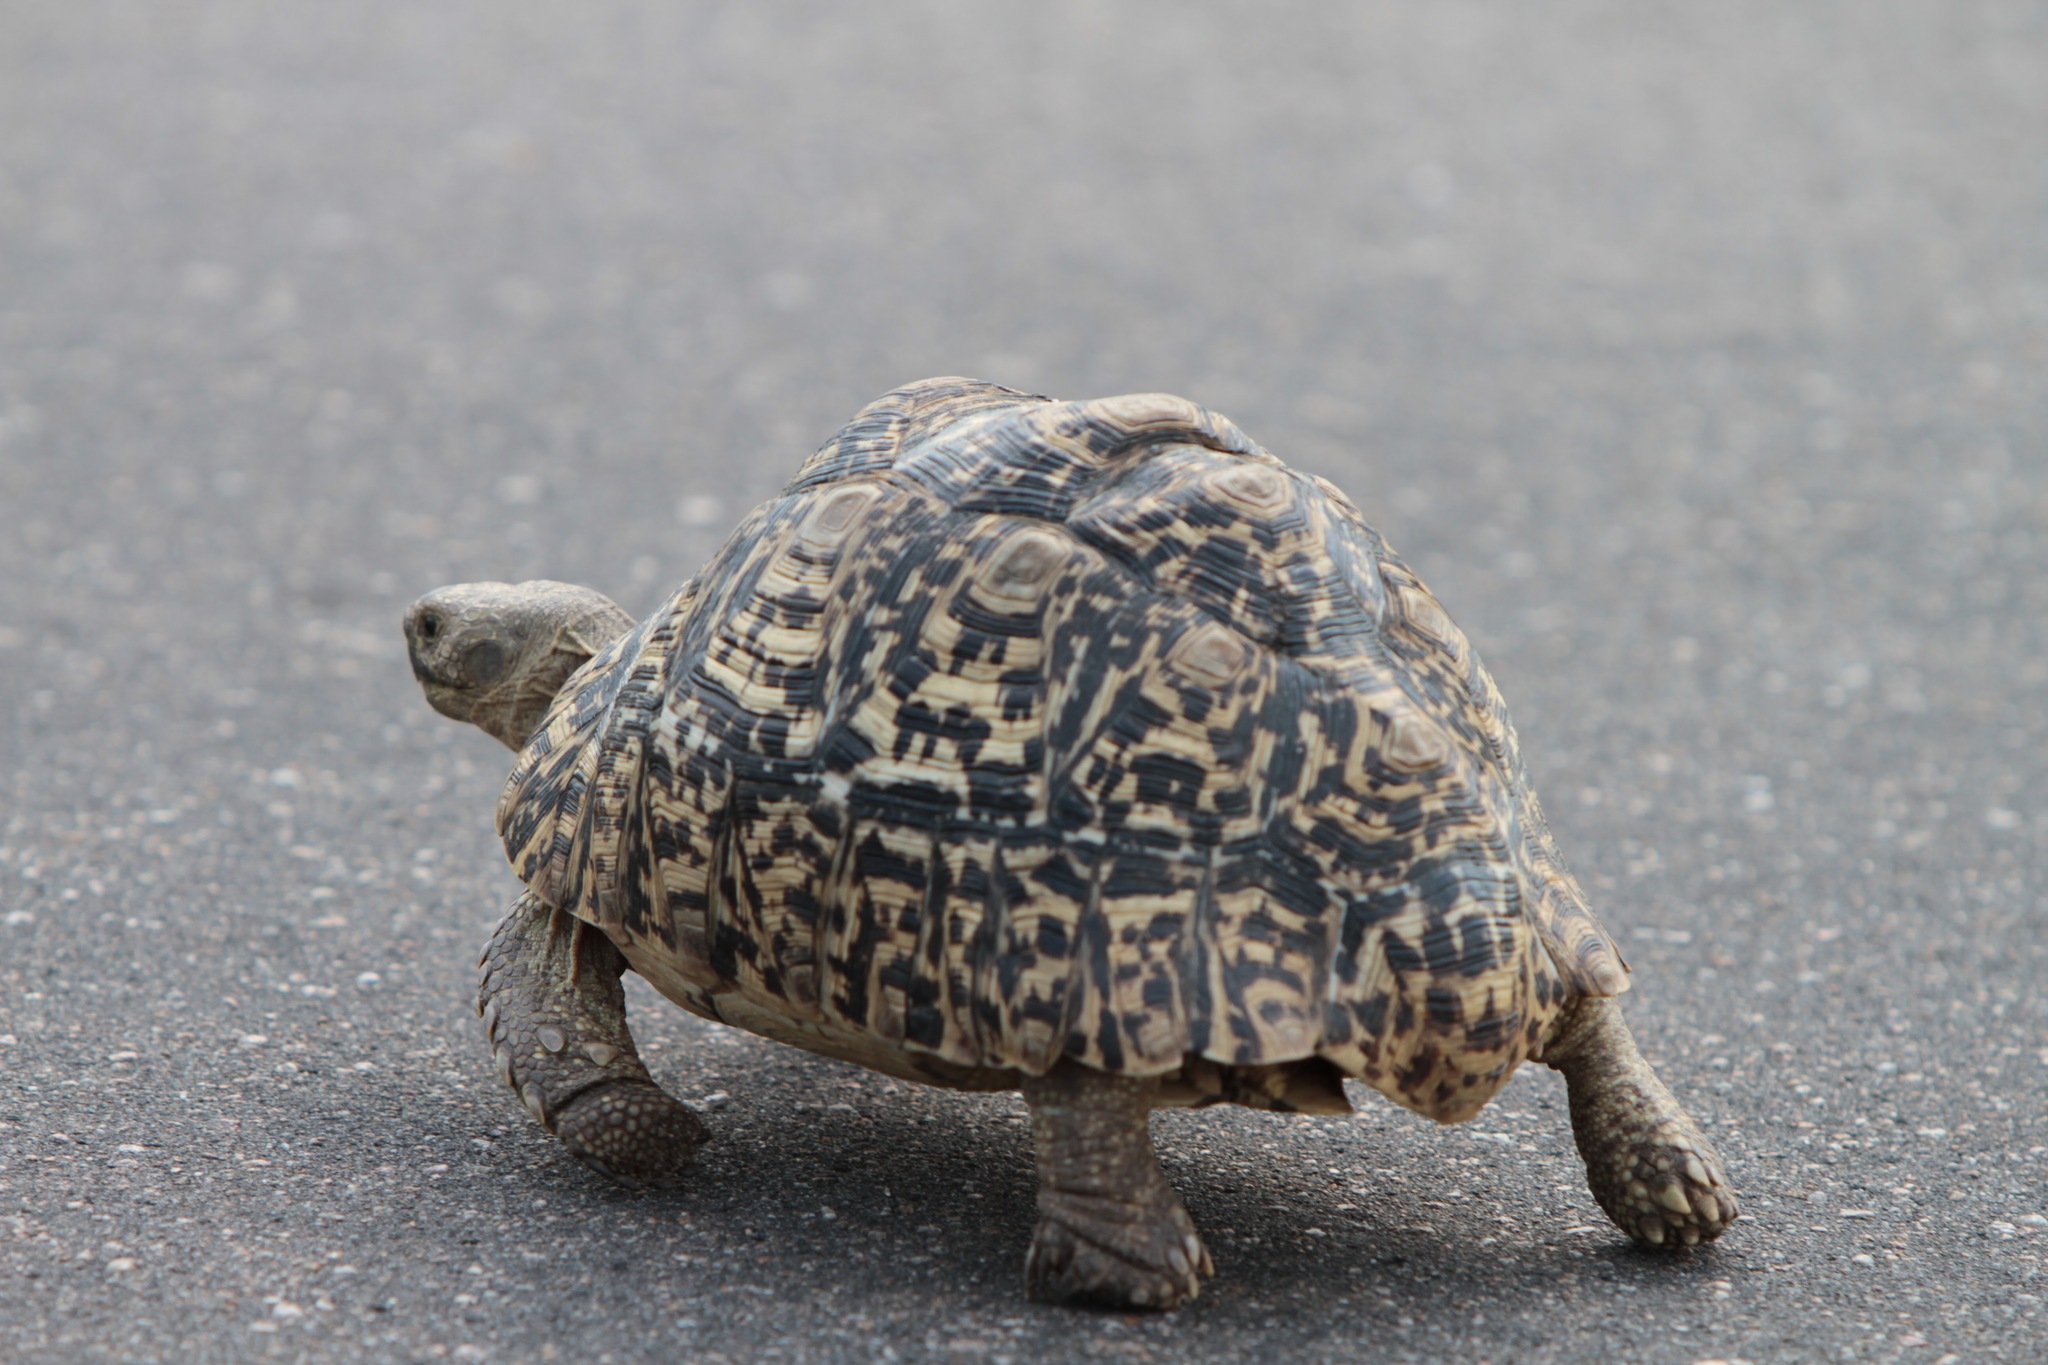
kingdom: Animalia
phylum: Chordata
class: Testudines
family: Testudinidae
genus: Stigmochelys
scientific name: Stigmochelys pardalis
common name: Leopard tortoise
